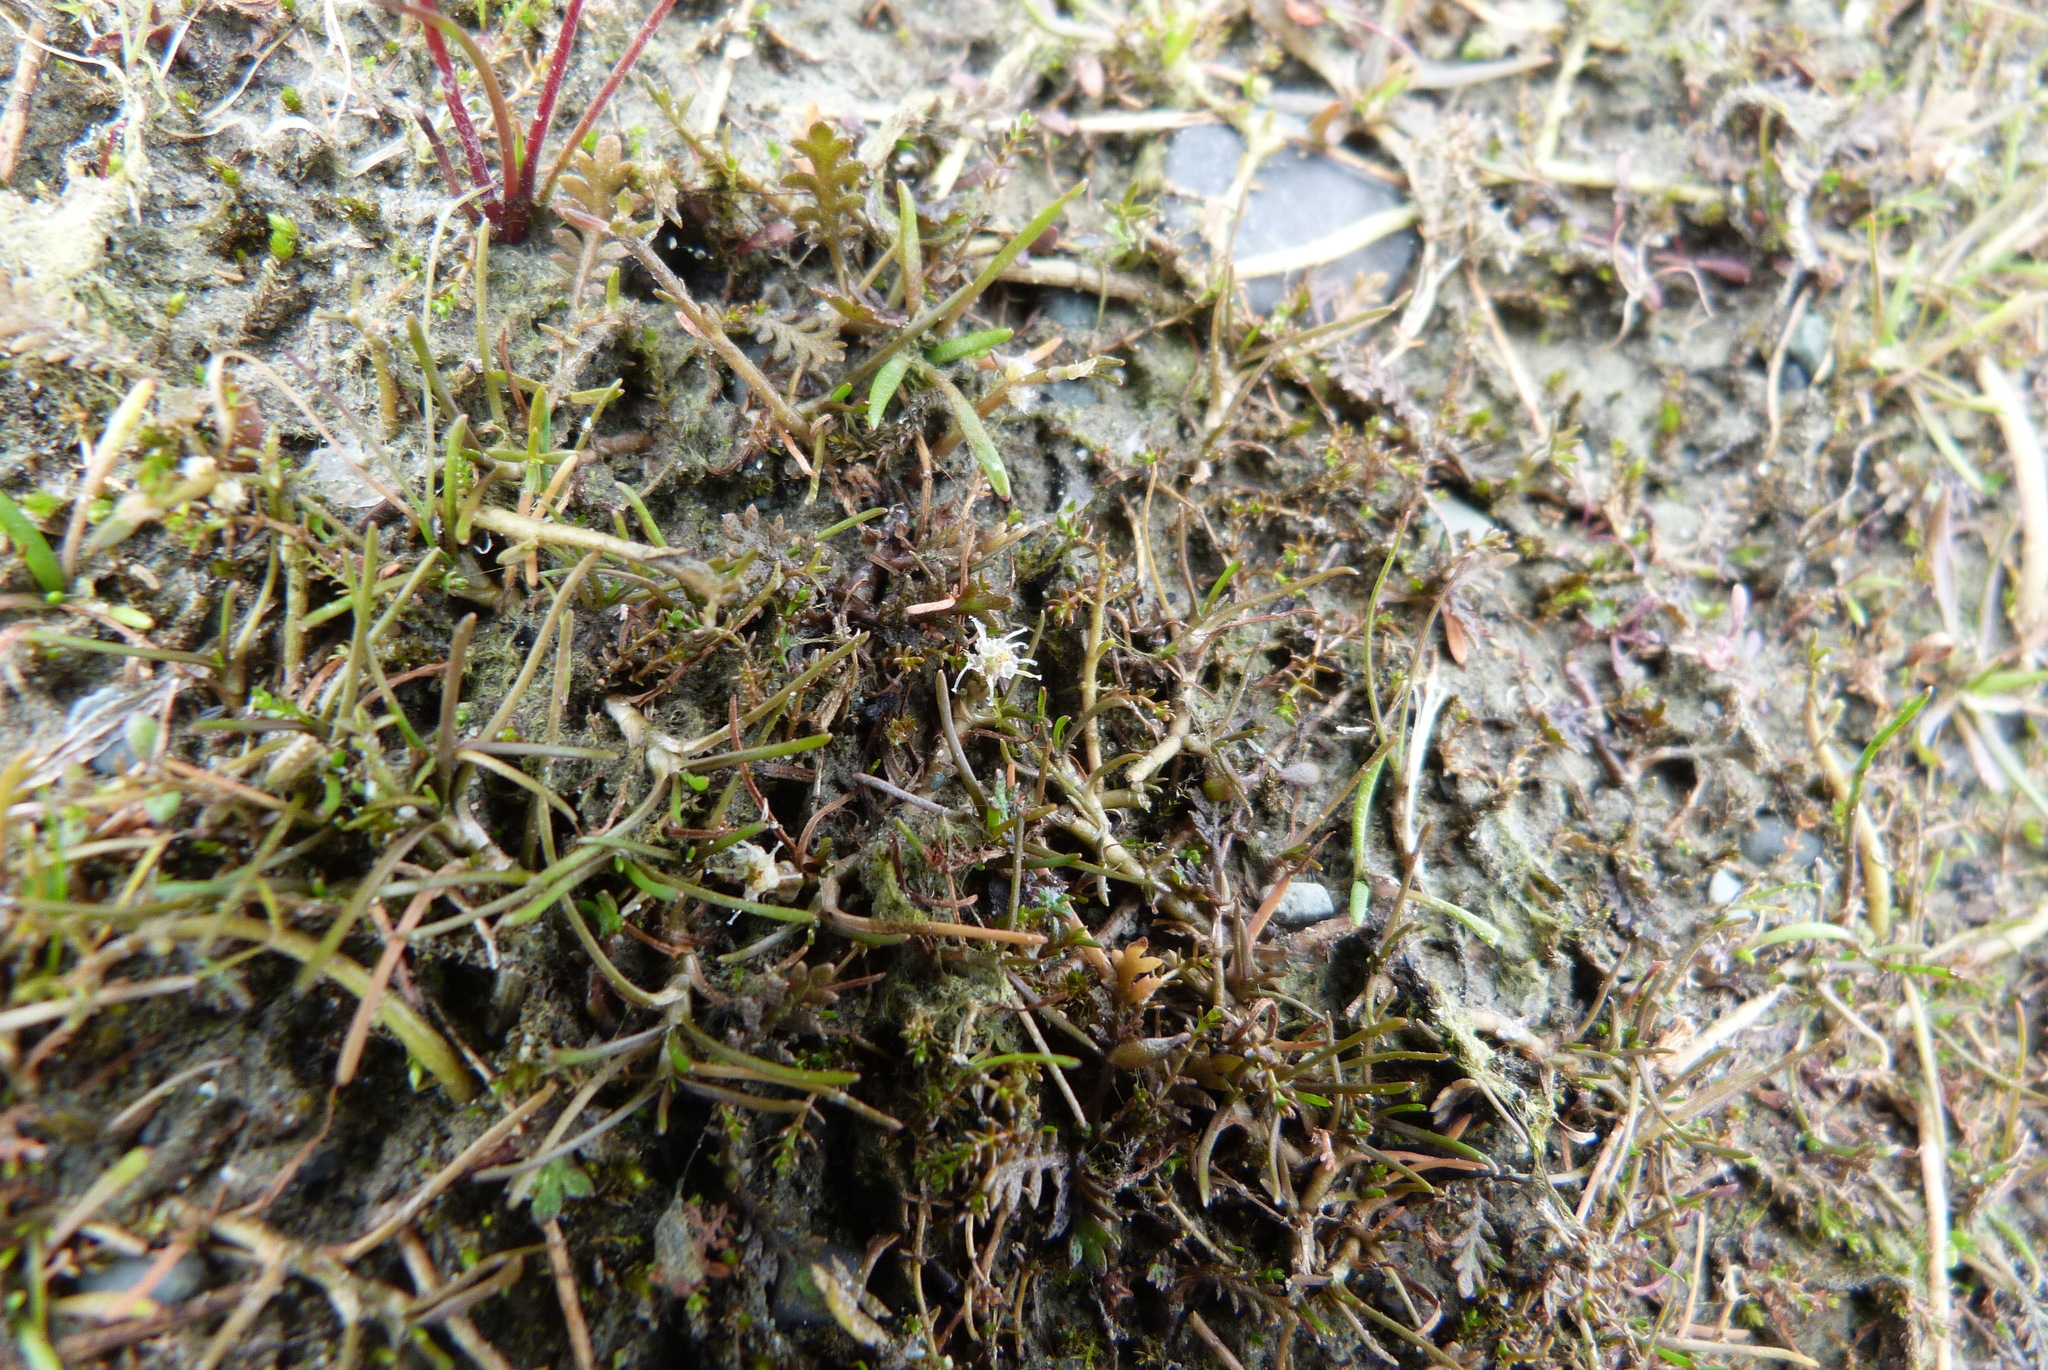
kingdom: Plantae
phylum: Tracheophyta
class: Magnoliopsida
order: Asterales
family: Asteraceae
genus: Leptinella
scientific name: Leptinella maniototo
